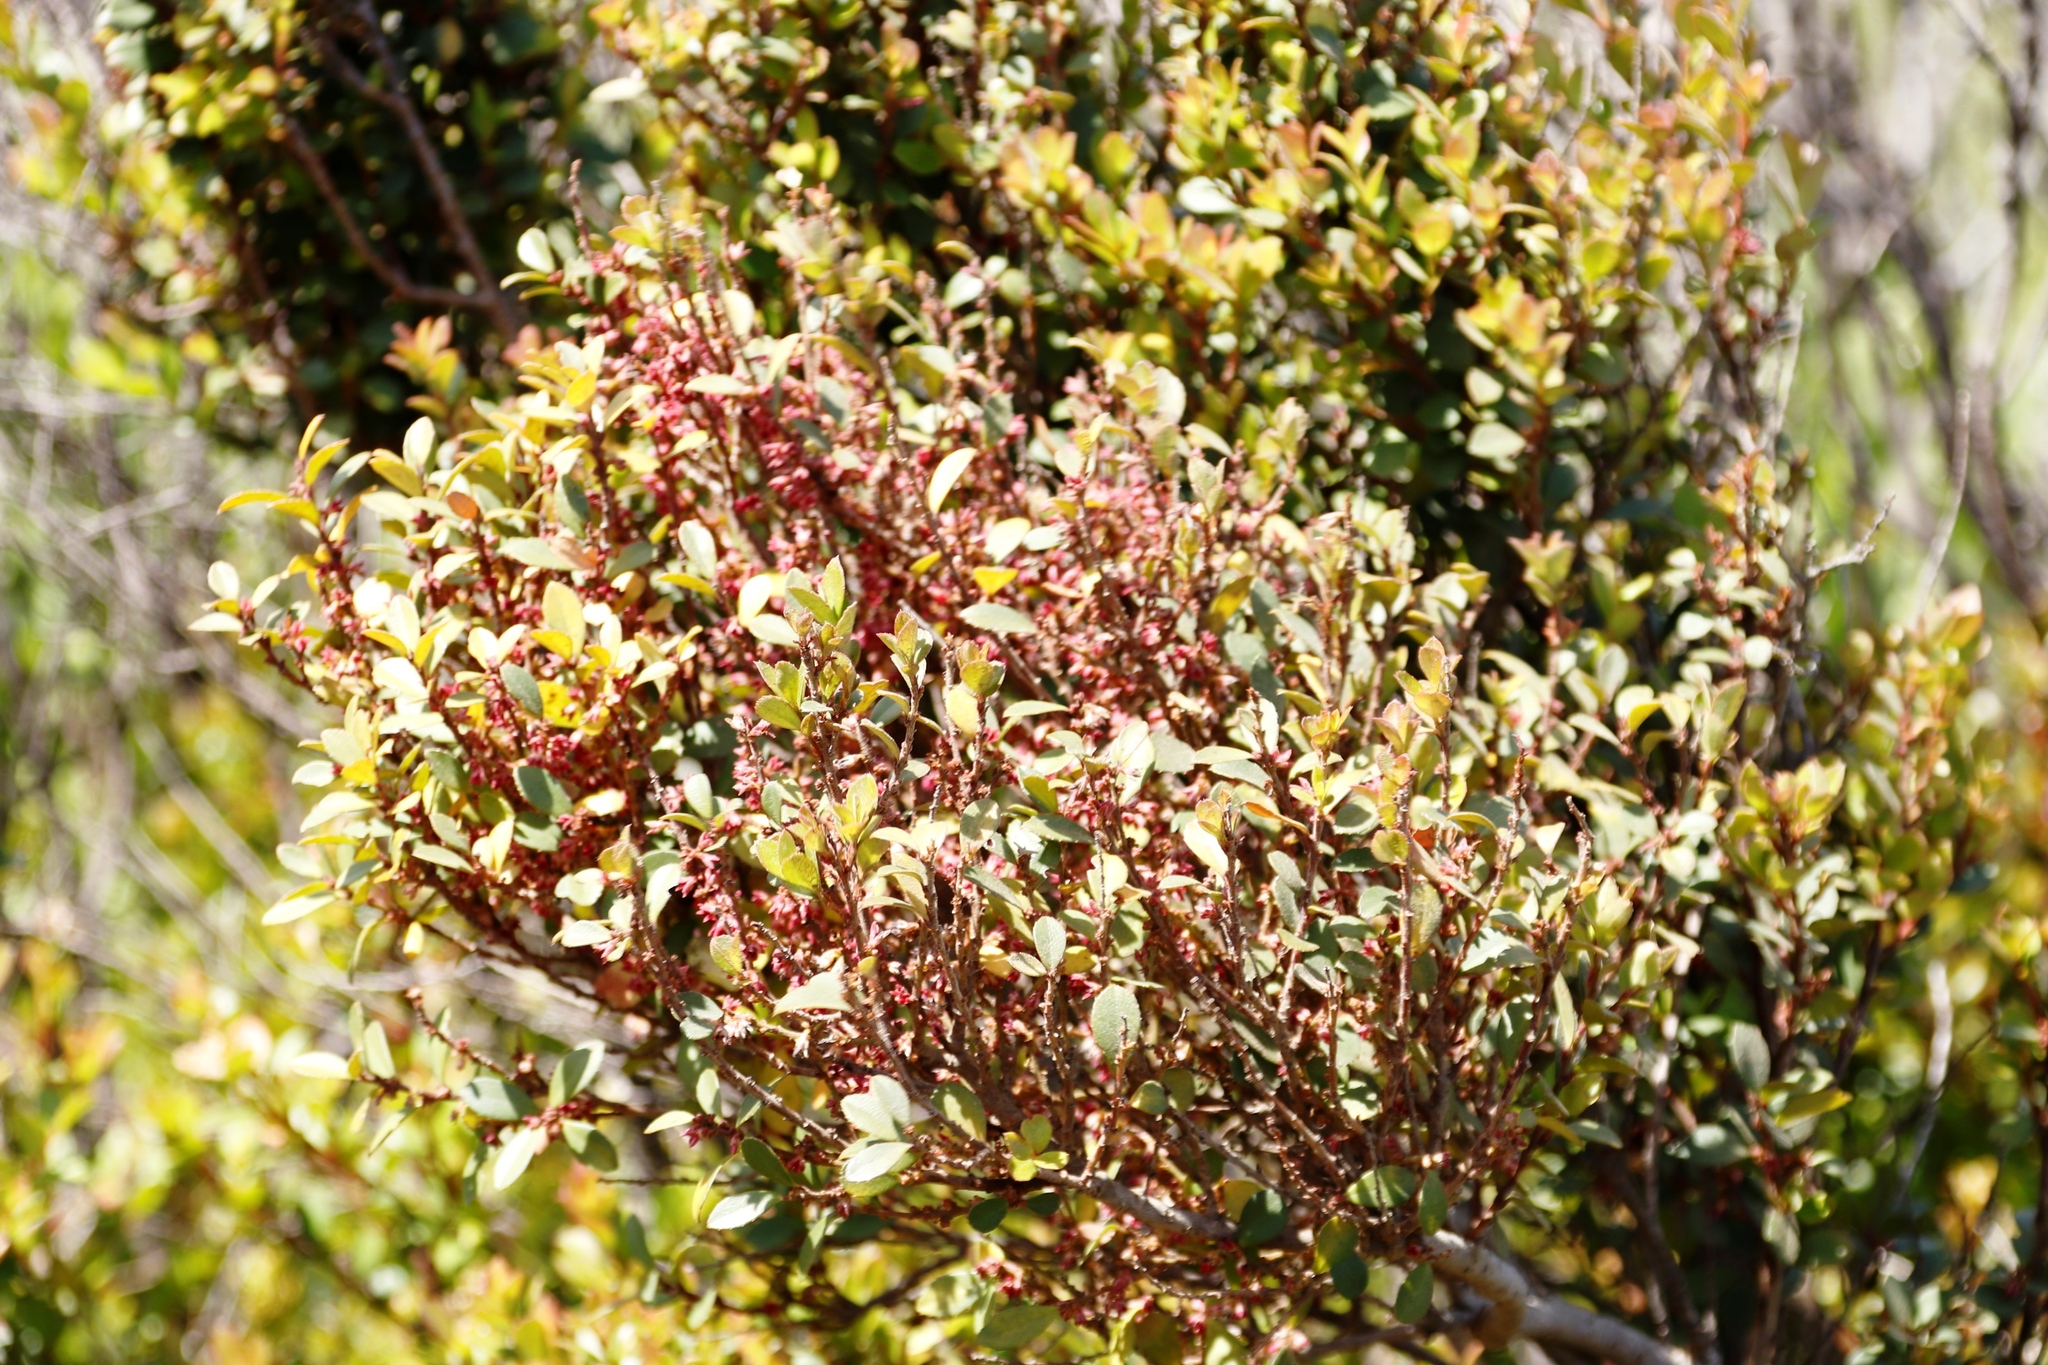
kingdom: Plantae
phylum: Tracheophyta
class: Magnoliopsida
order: Ericales
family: Primulaceae
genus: Myrsine
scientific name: Myrsine africana
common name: African-boxwood
